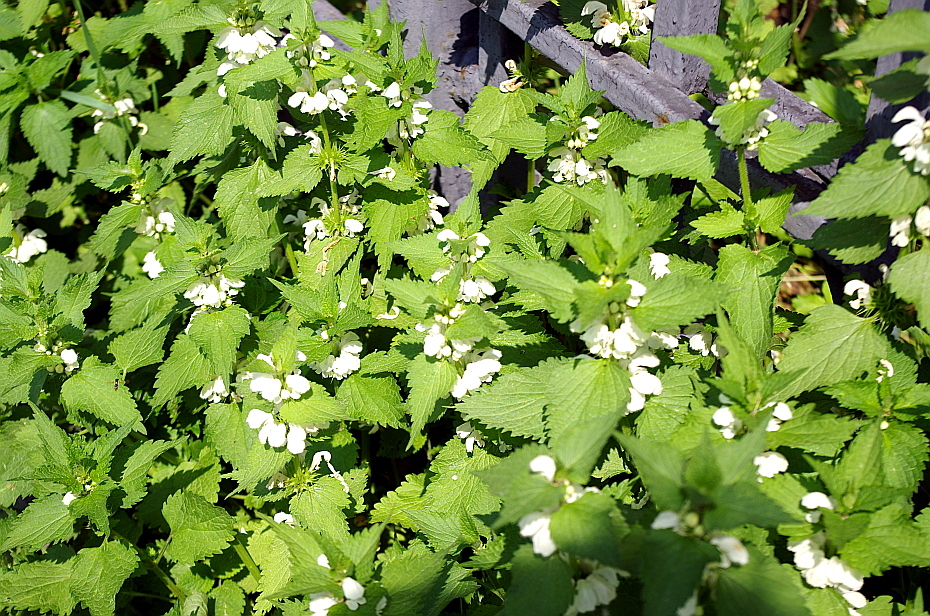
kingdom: Plantae
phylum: Tracheophyta
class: Magnoliopsida
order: Lamiales
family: Lamiaceae
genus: Lamium
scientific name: Lamium album
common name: White dead-nettle
